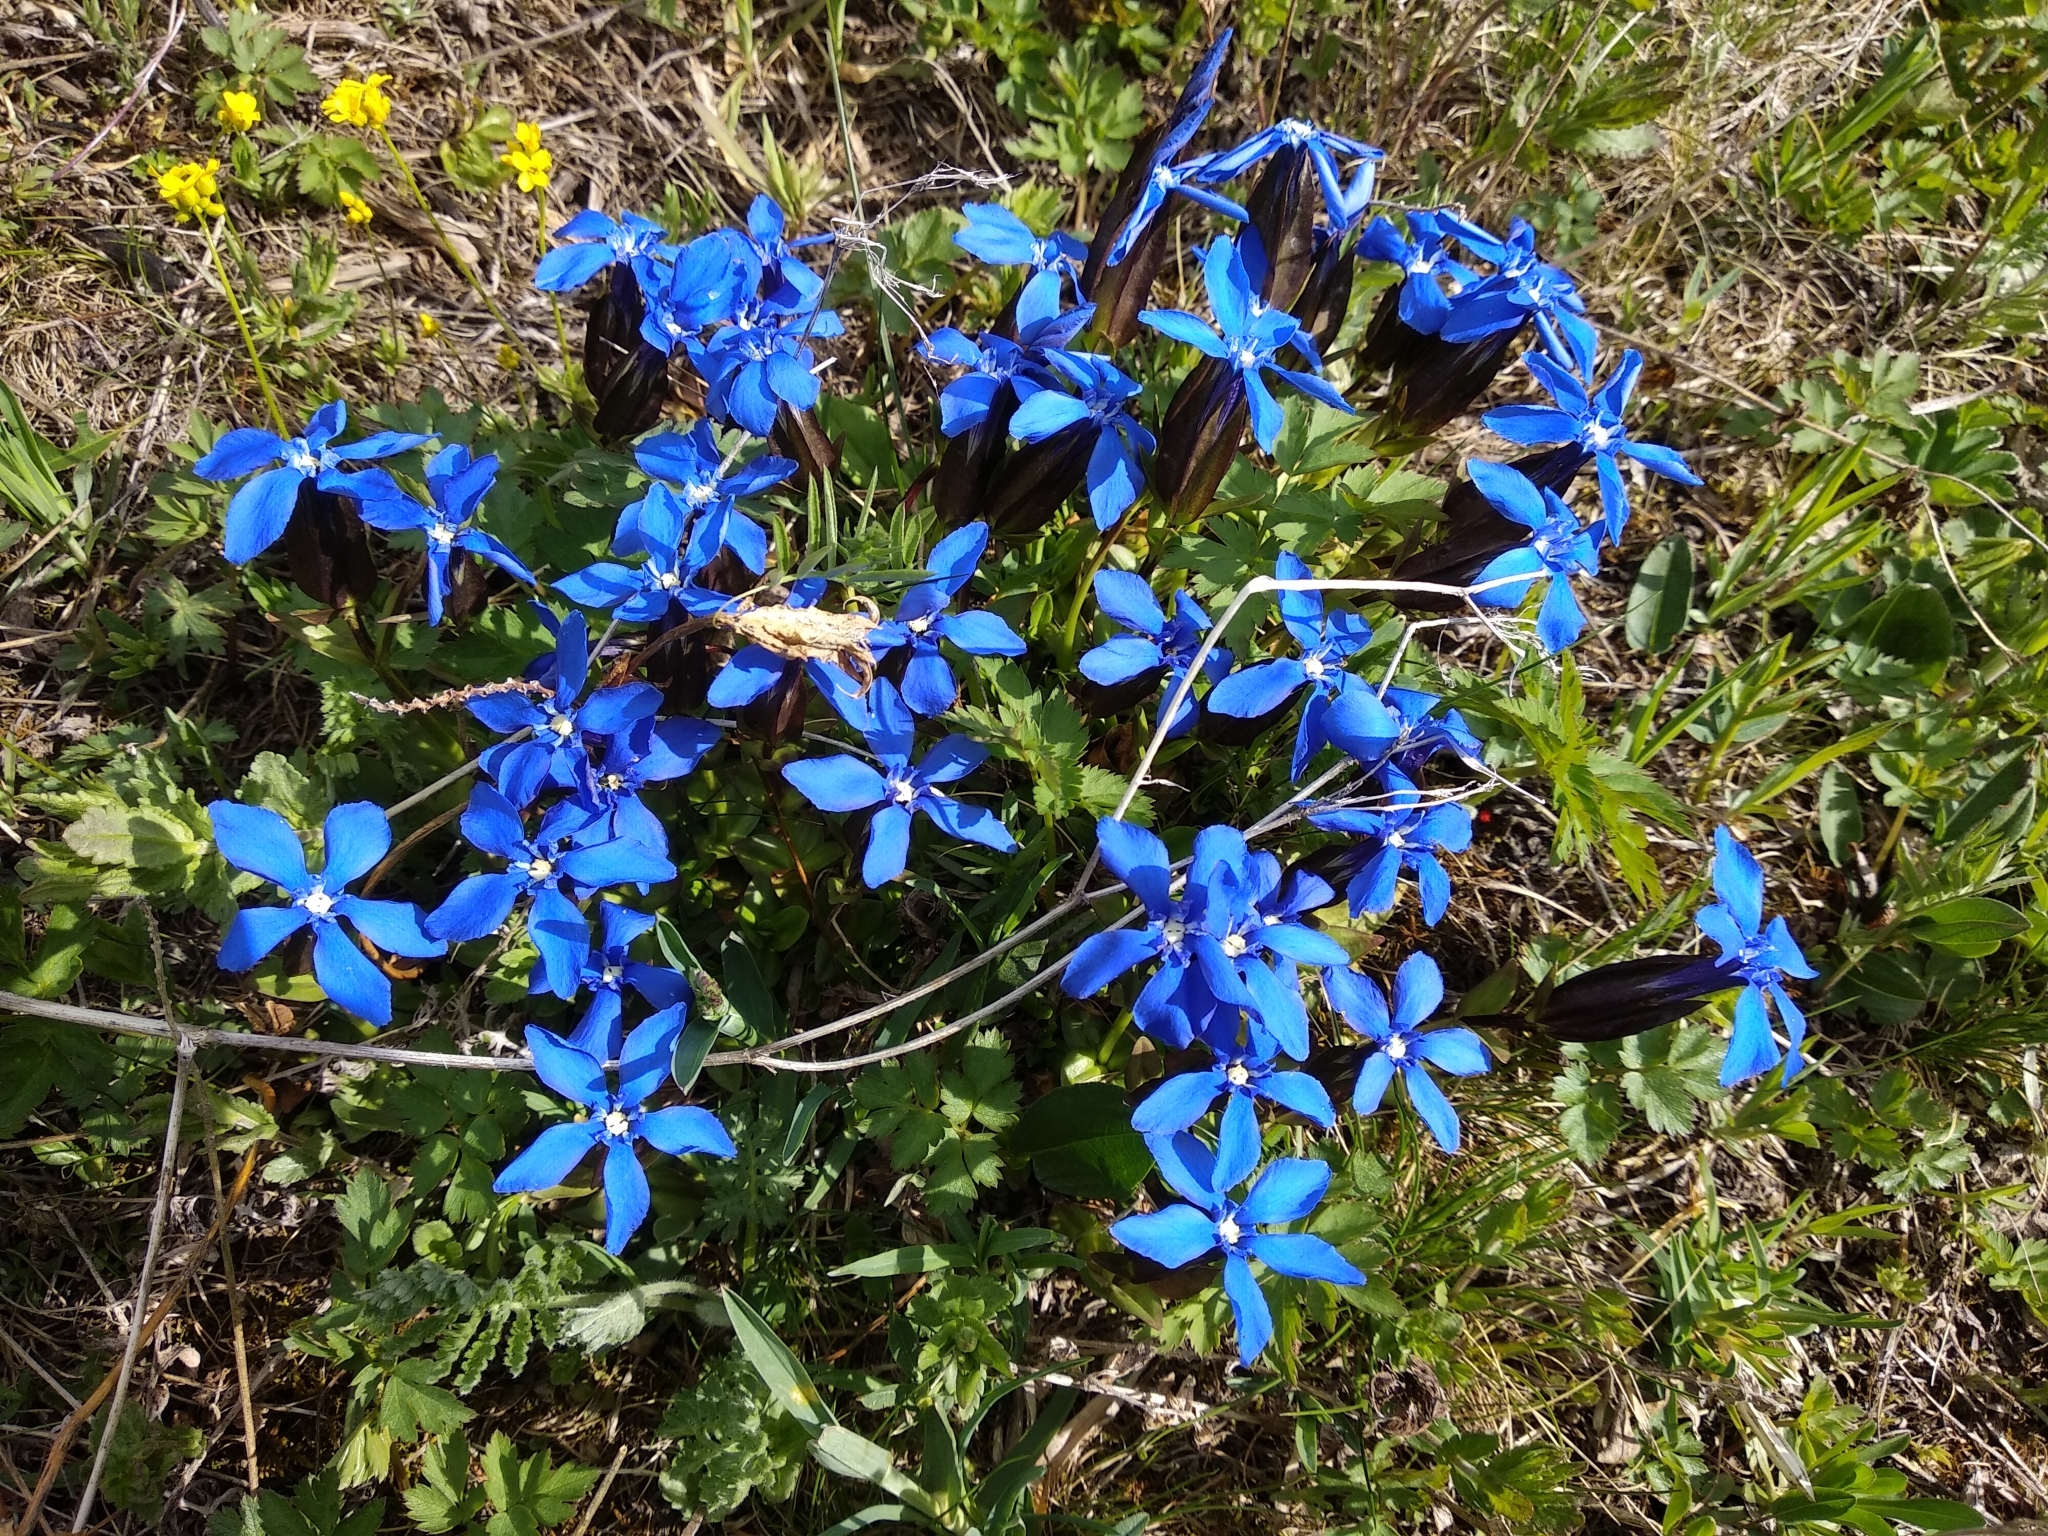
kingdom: Plantae
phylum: Tracheophyta
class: Magnoliopsida
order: Gentianales
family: Gentianaceae
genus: Gentiana
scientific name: Gentiana uniflora
